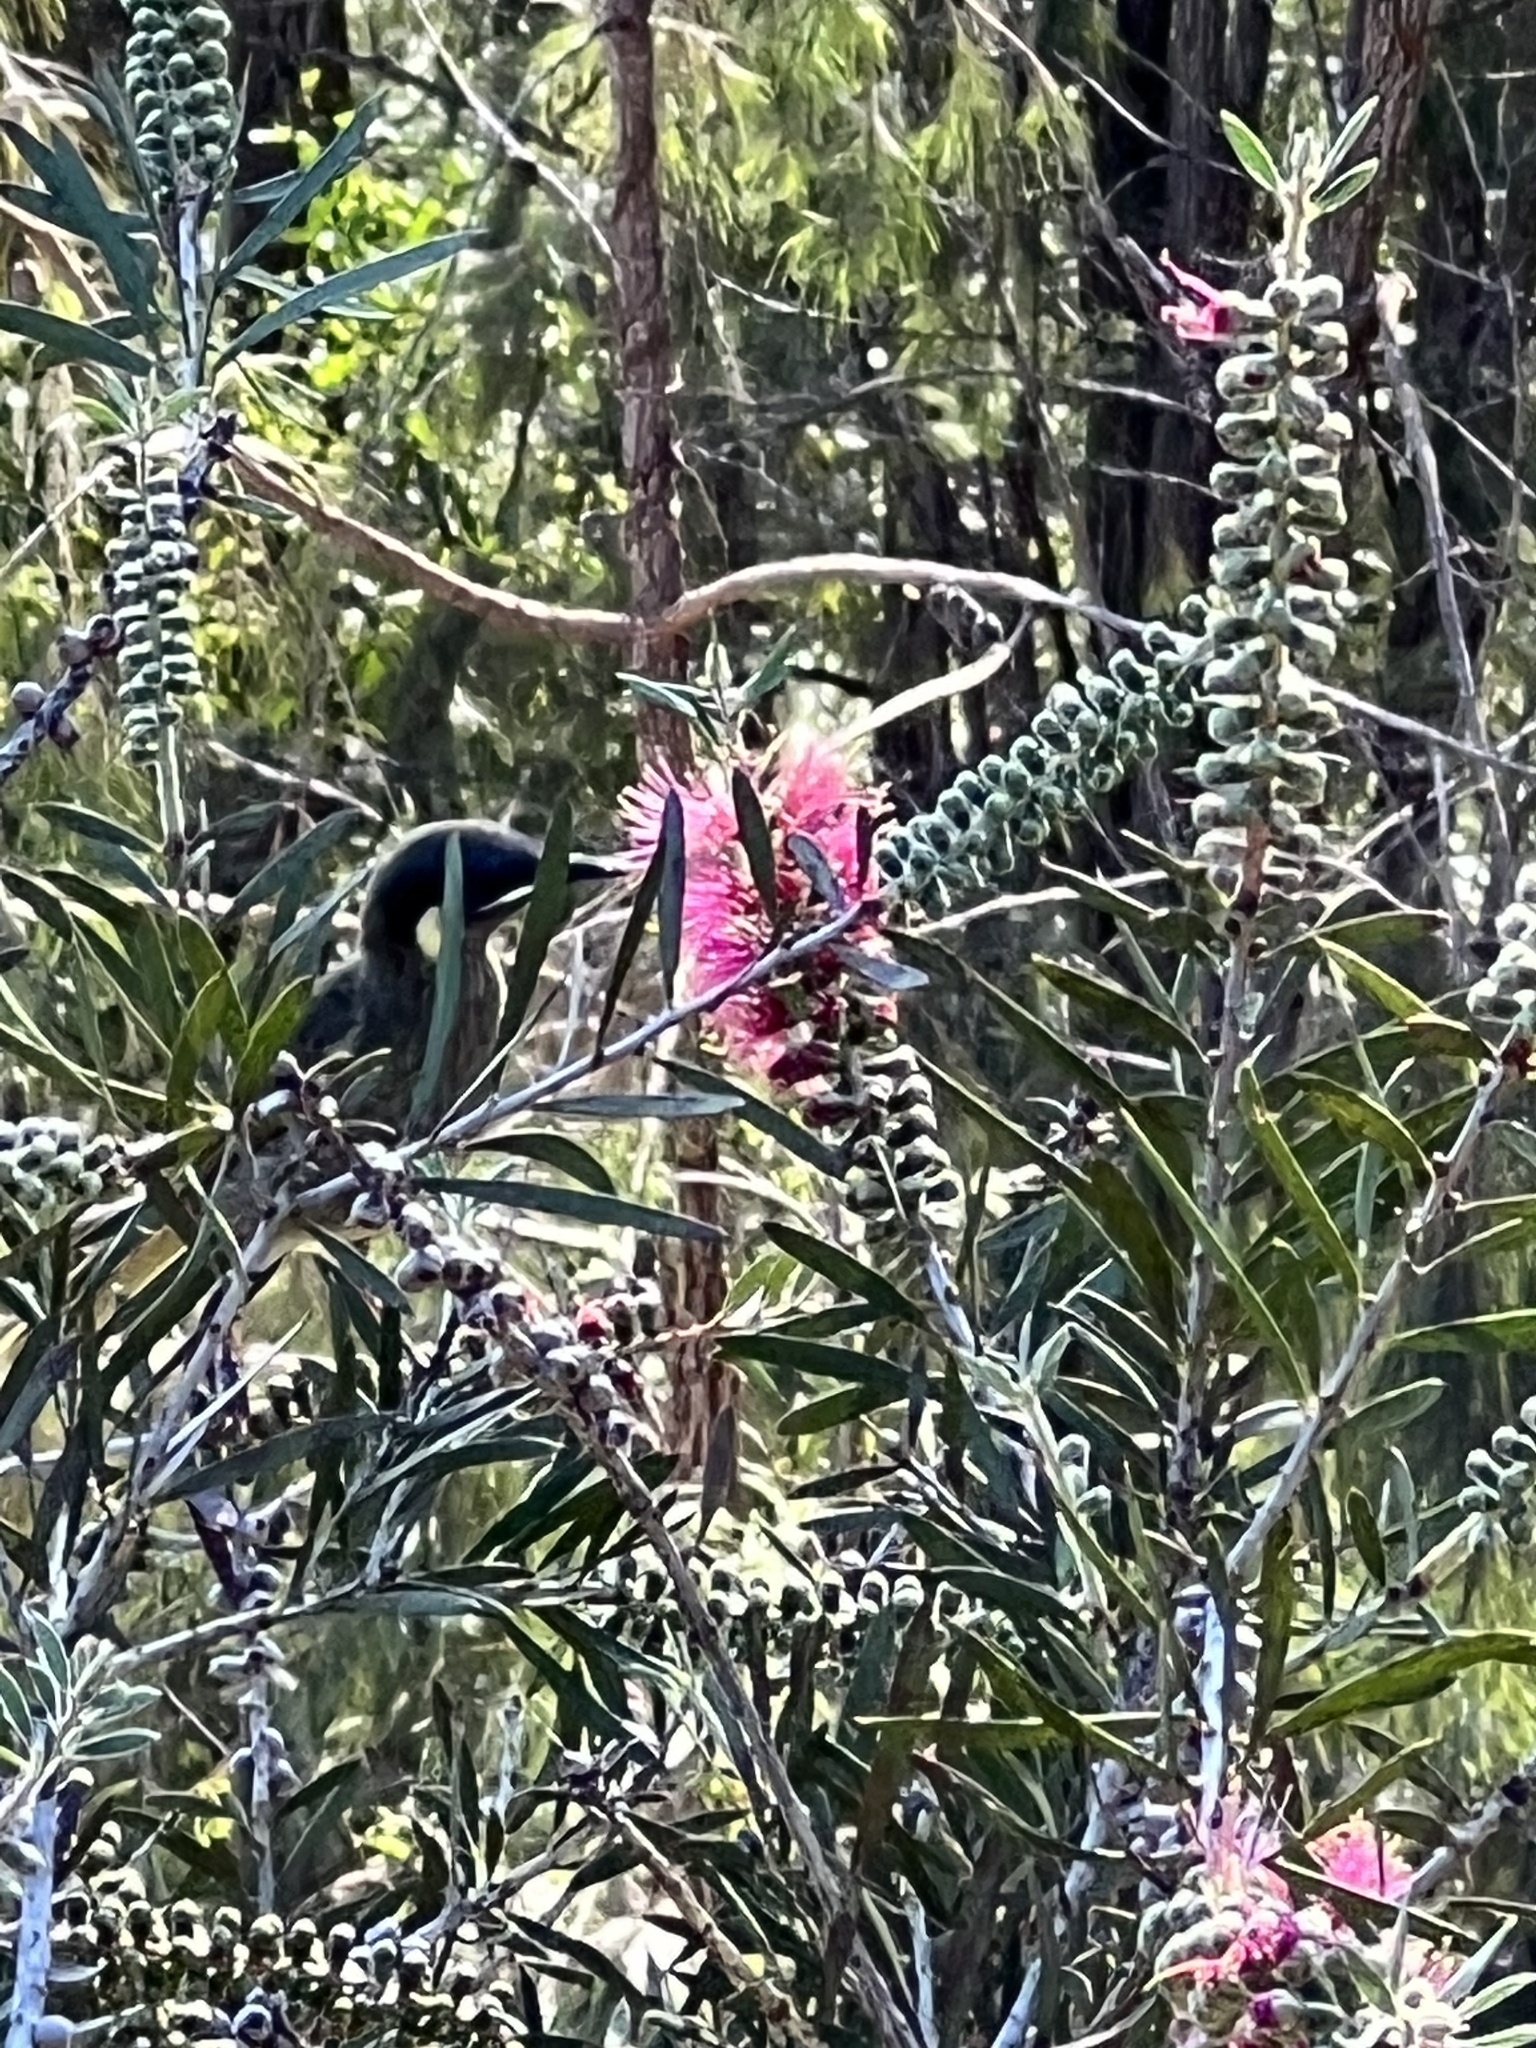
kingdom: Animalia
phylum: Chordata
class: Aves
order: Passeriformes
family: Meliphagidae
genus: Meliphaga
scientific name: Meliphaga lewinii
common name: Lewin's honeyeater
